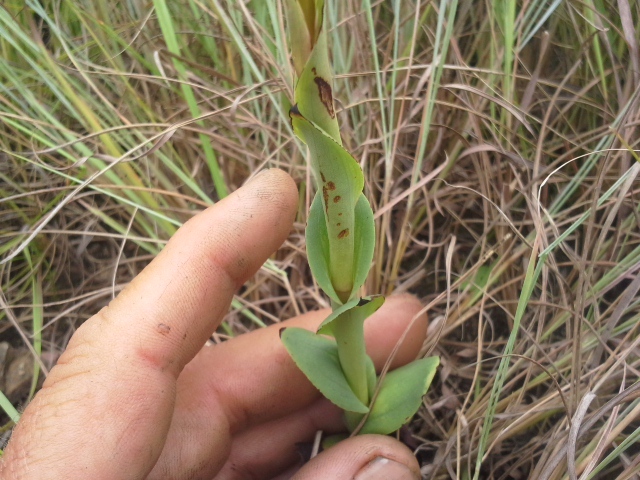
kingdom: Plantae
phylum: Tracheophyta
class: Liliopsida
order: Asparagales
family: Orchidaceae
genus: Disa
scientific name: Disa clavicornis
